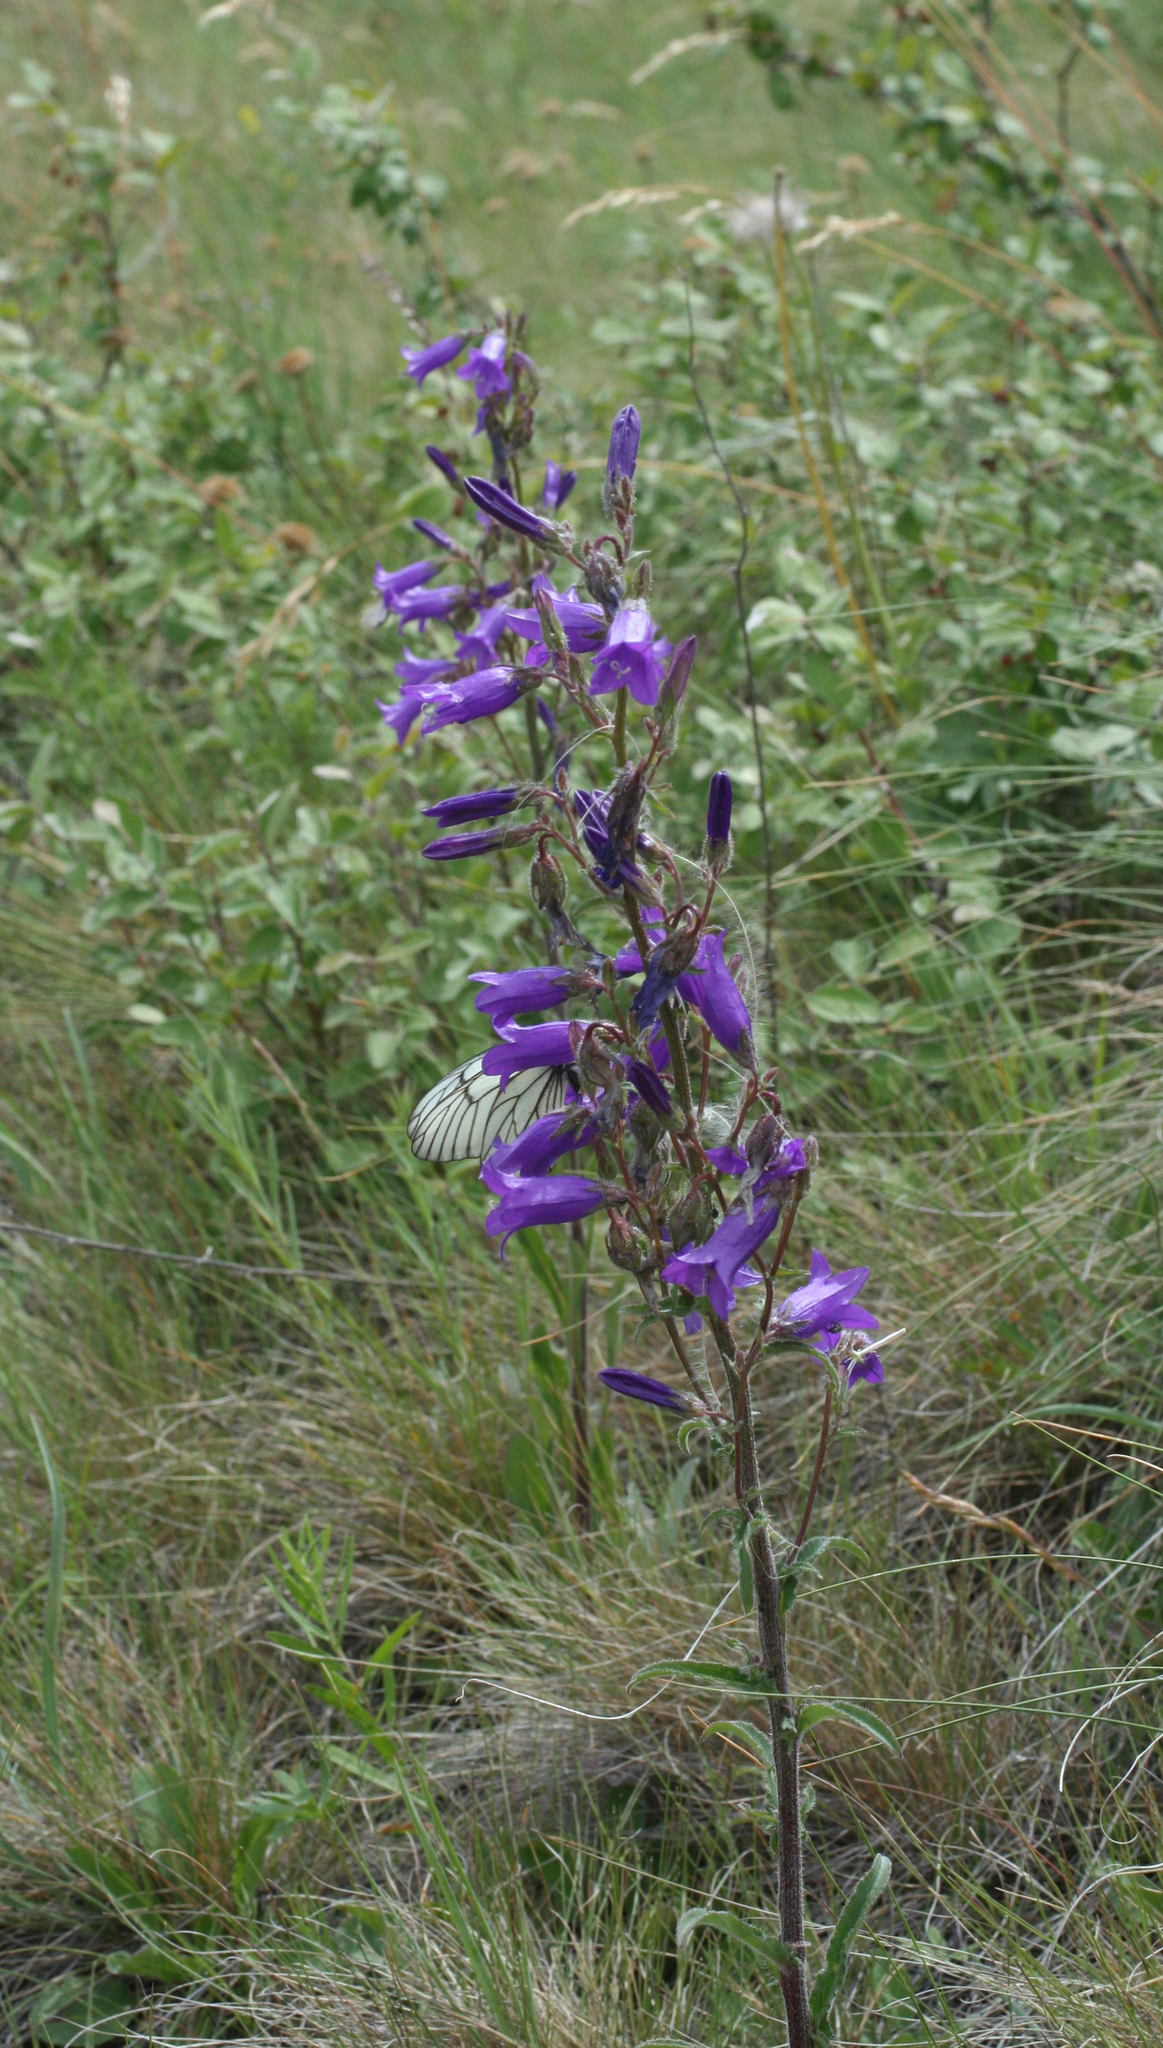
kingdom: Plantae
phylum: Tracheophyta
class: Magnoliopsida
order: Asterales
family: Campanulaceae
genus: Campanula
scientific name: Campanula sibirica
